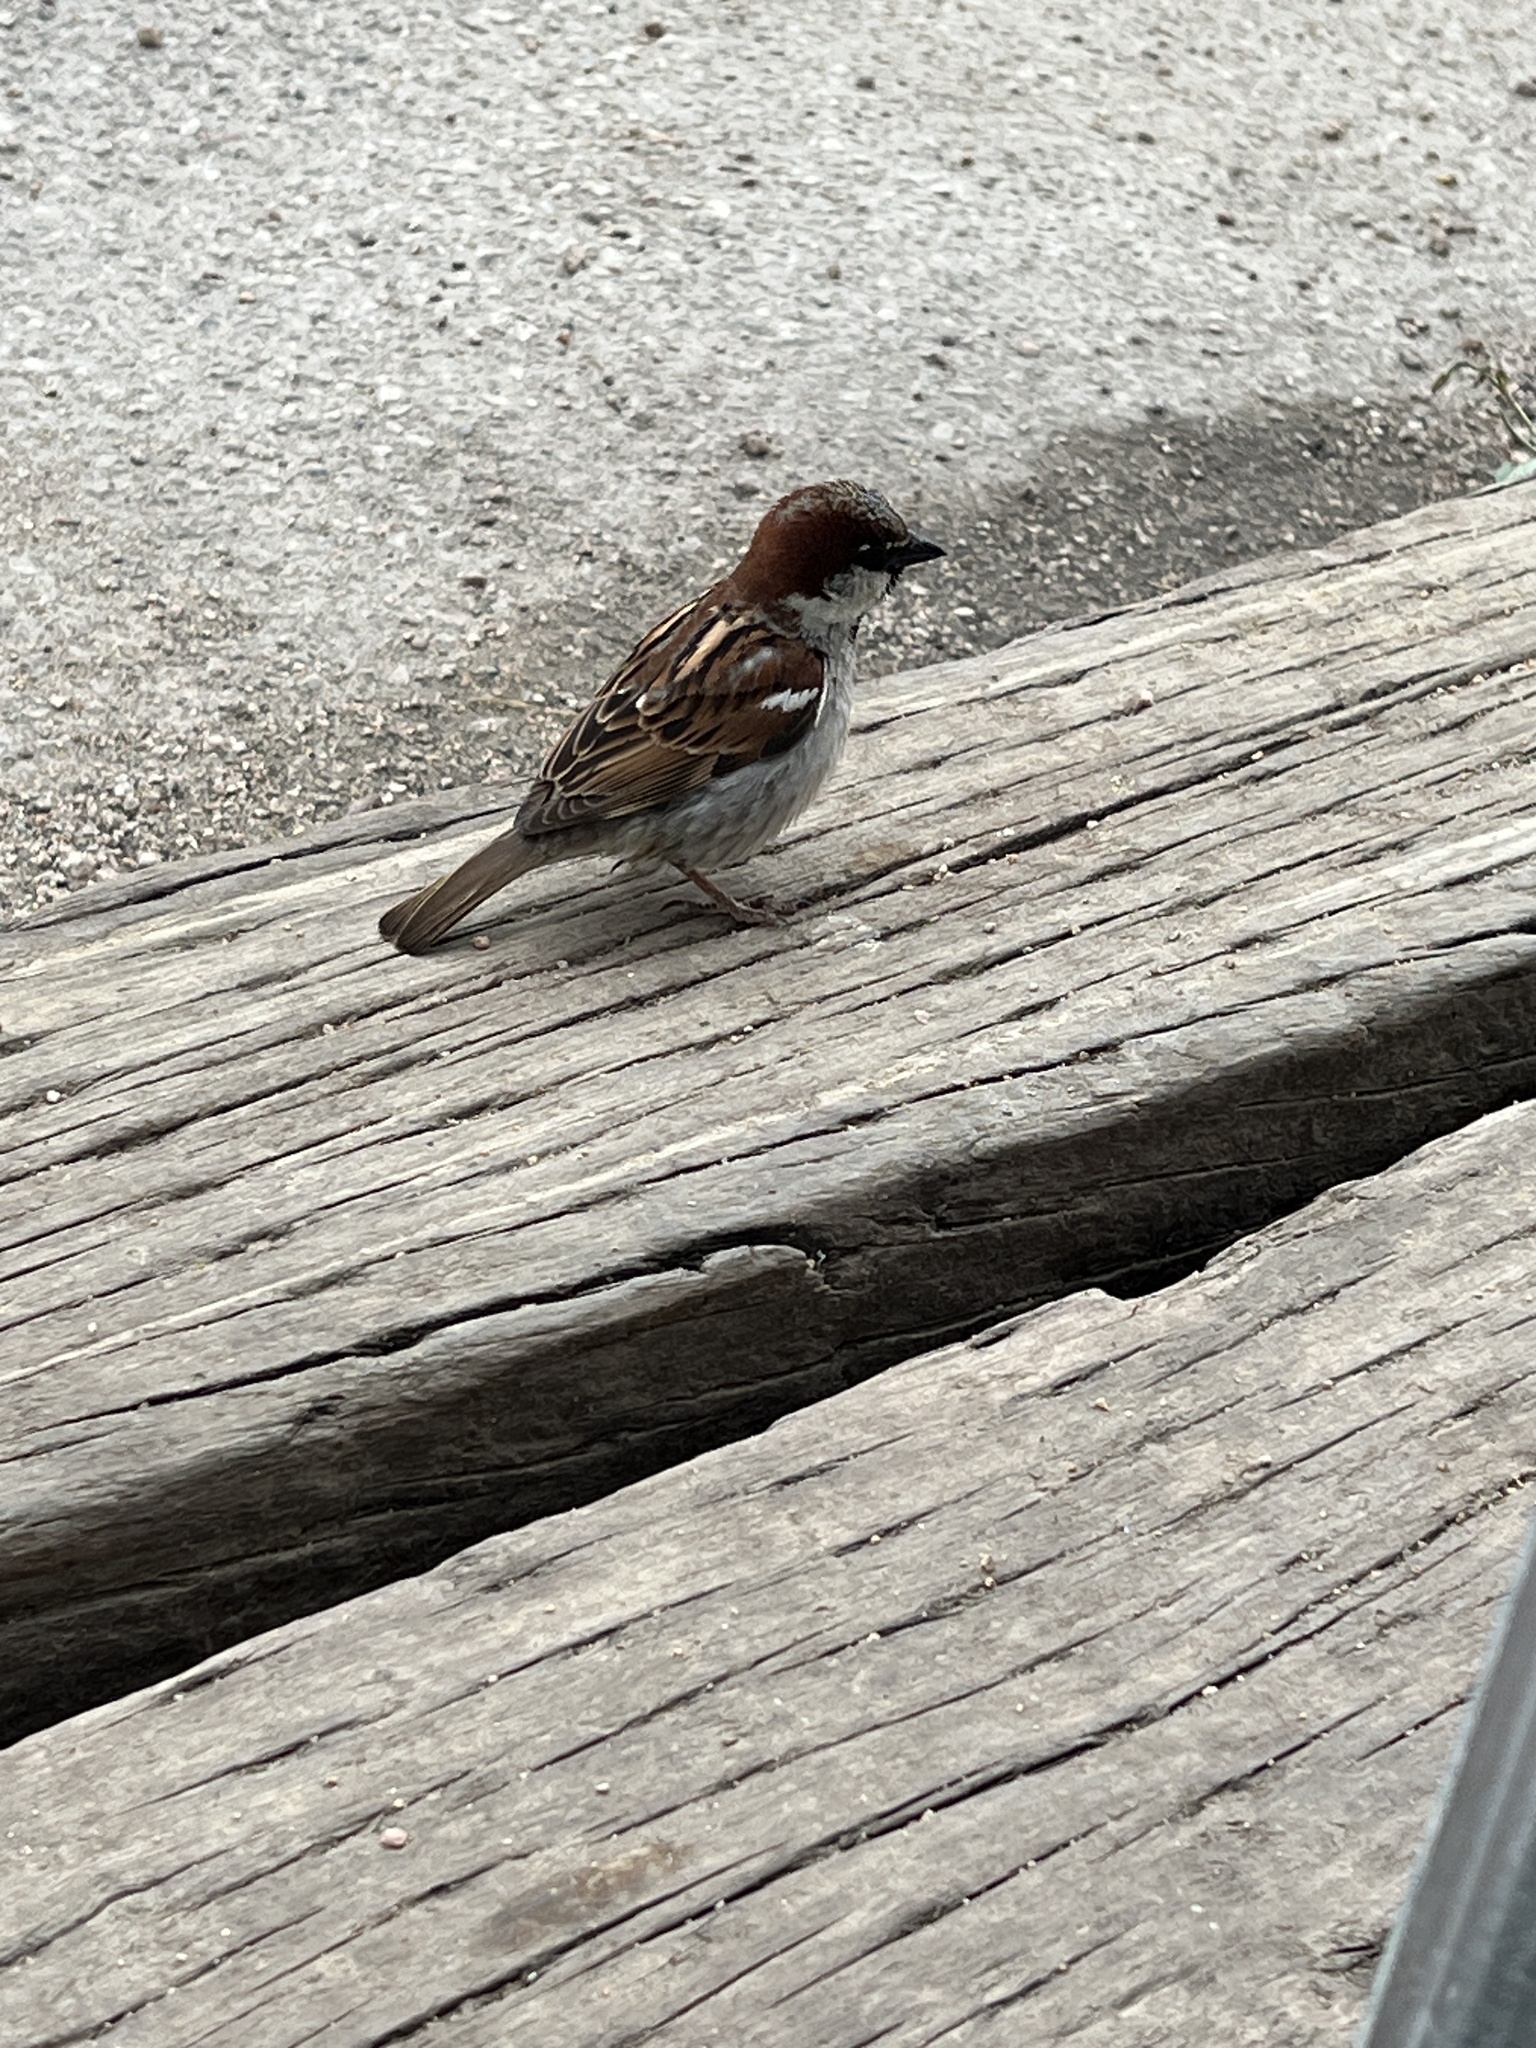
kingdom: Animalia
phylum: Chordata
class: Aves
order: Passeriformes
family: Passeridae
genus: Passer
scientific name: Passer domesticus
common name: House sparrow
